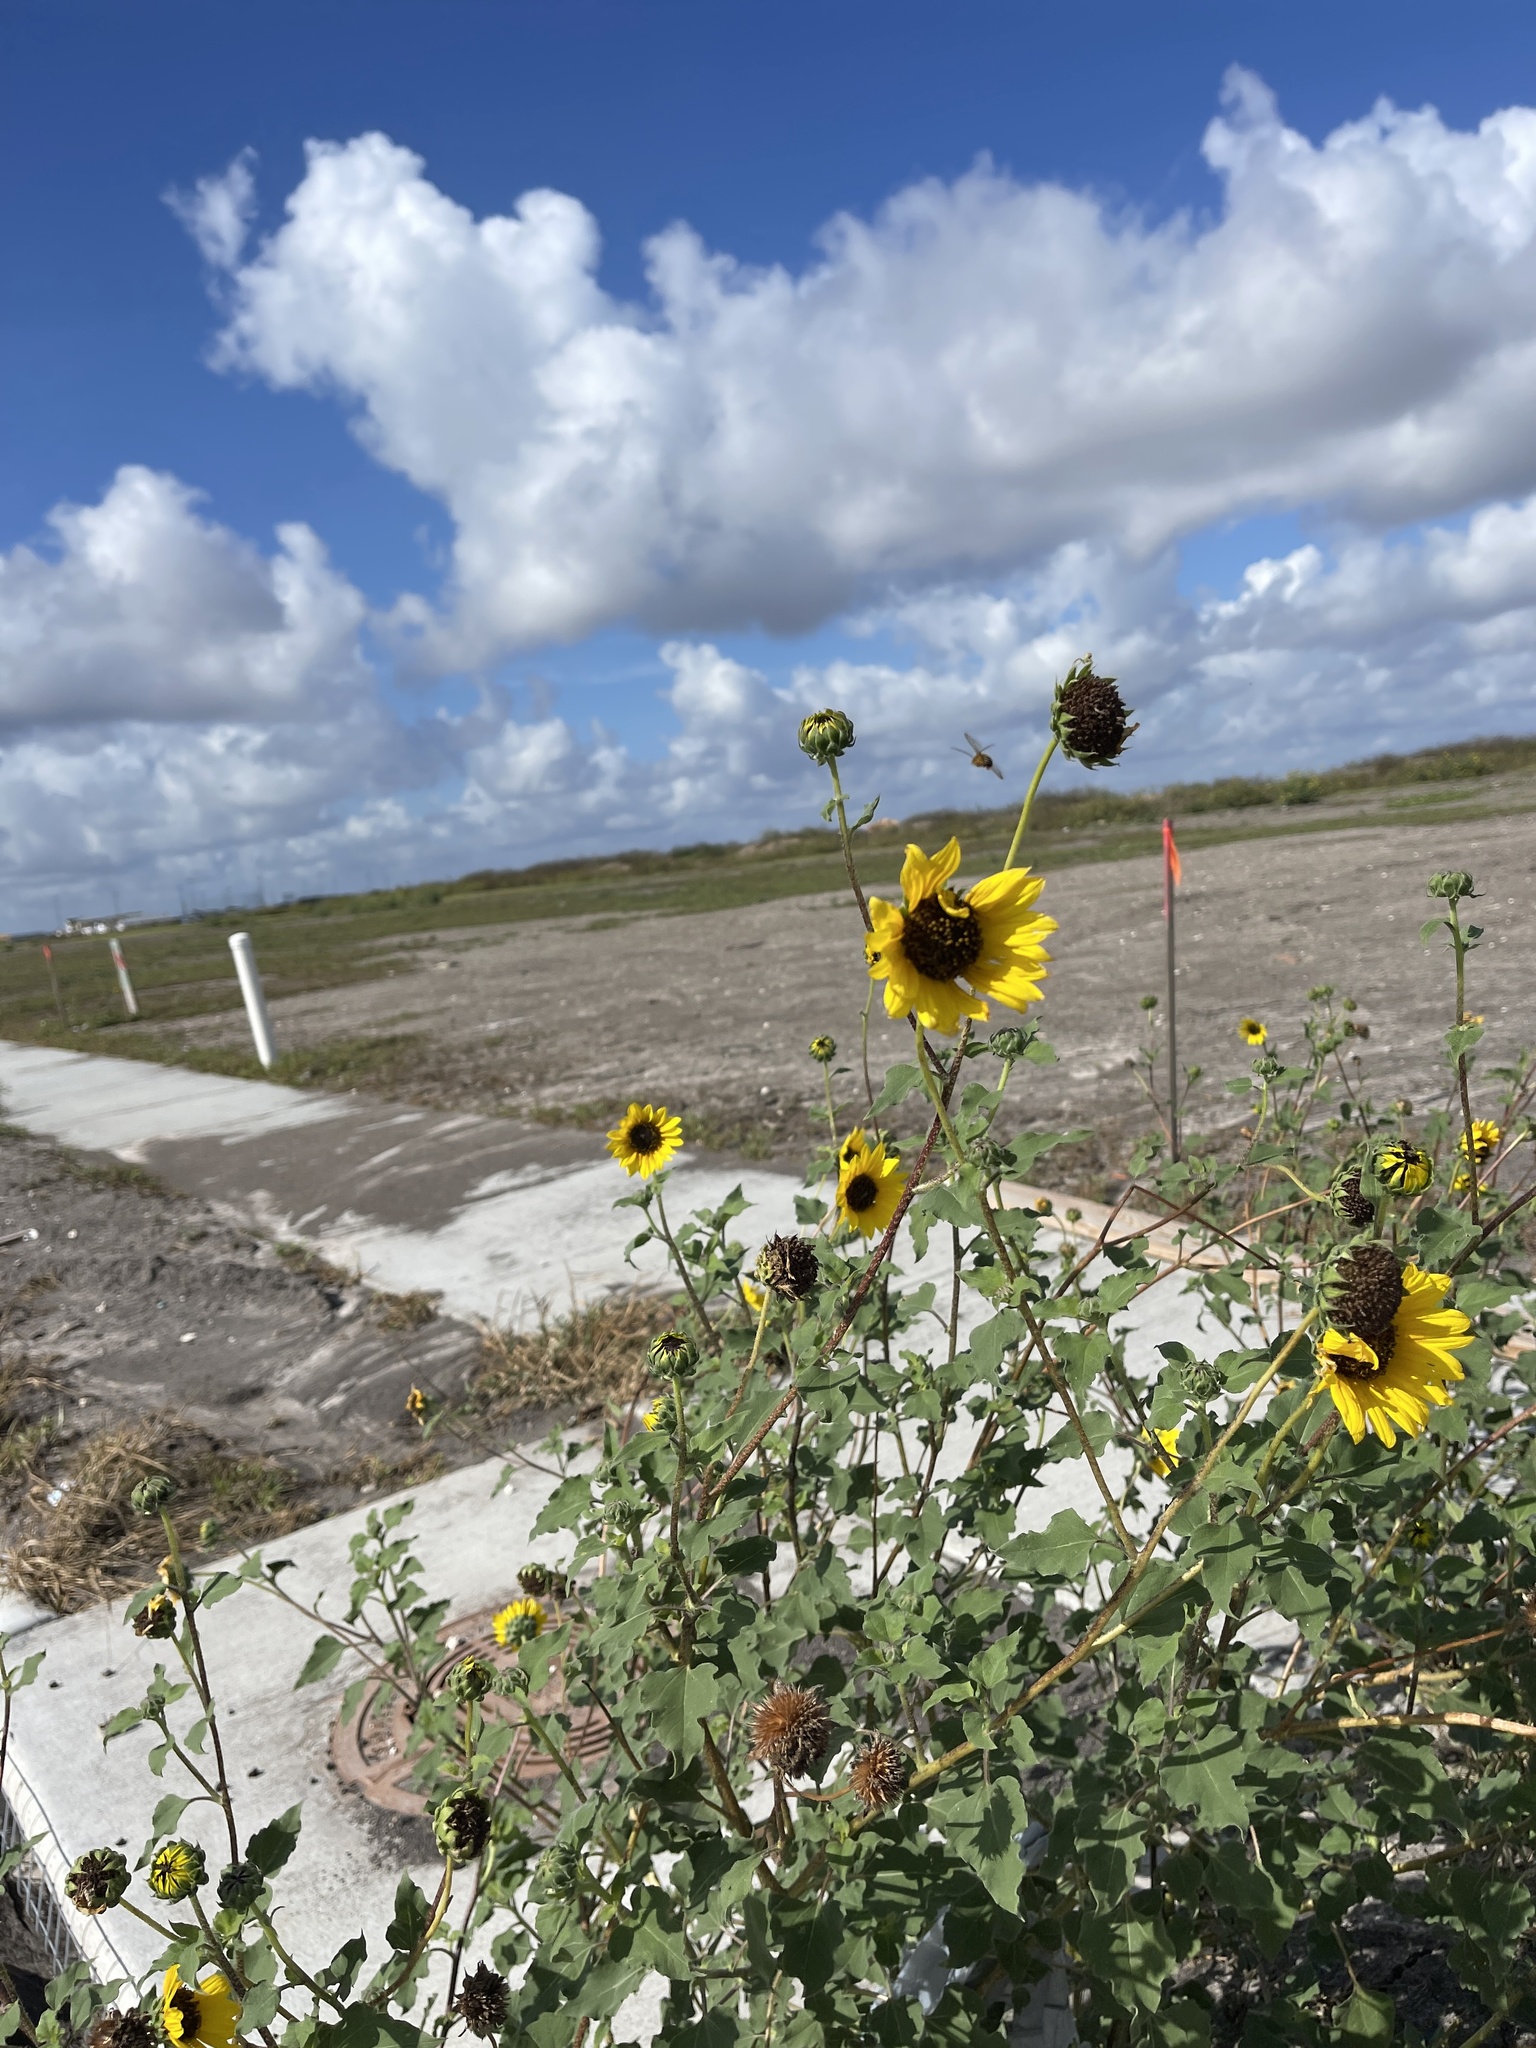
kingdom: Plantae
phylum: Tracheophyta
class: Magnoliopsida
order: Asterales
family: Asteraceae
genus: Helianthus
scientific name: Helianthus annuus
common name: Sunflower
